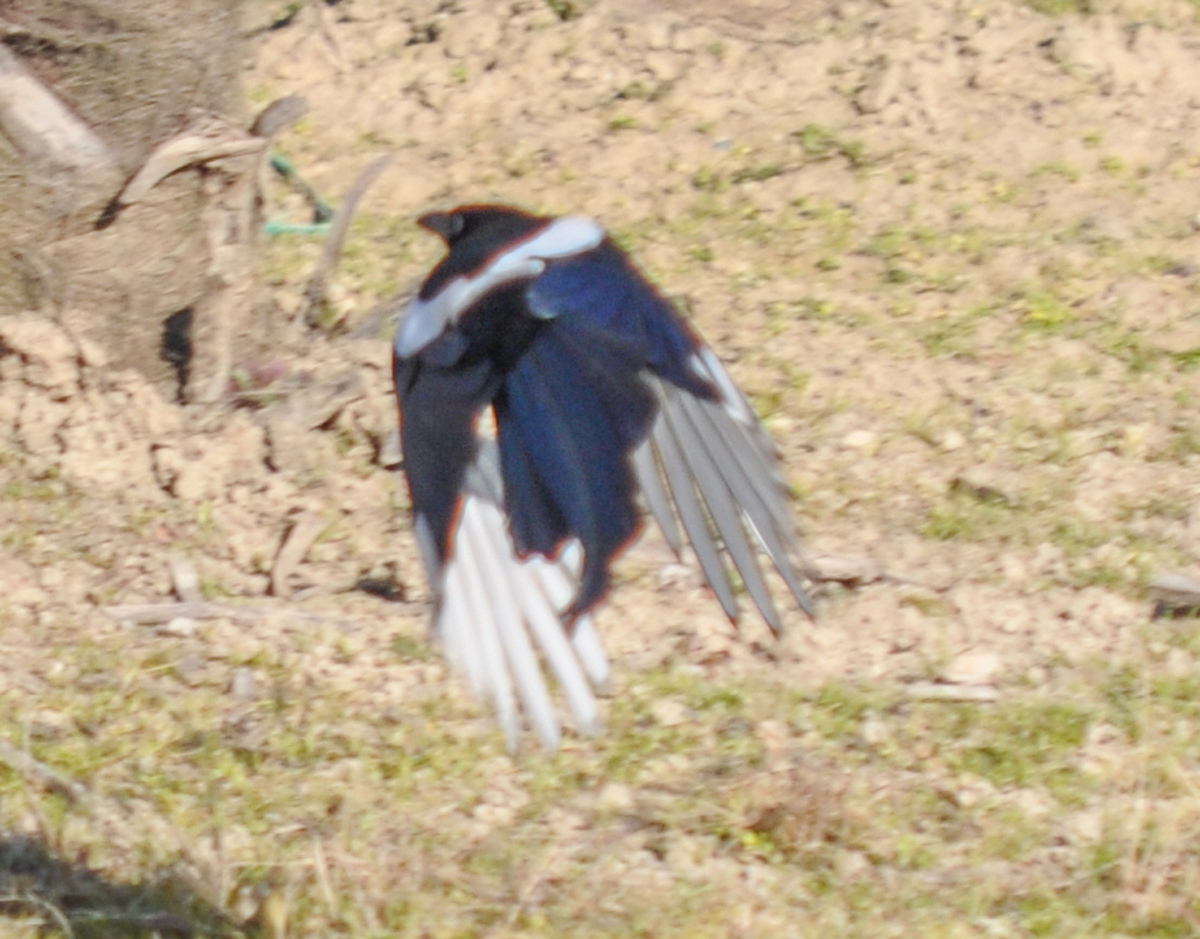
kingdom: Animalia
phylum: Chordata
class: Aves
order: Passeriformes
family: Corvidae
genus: Pica
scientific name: Pica pica
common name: Eurasian magpie
